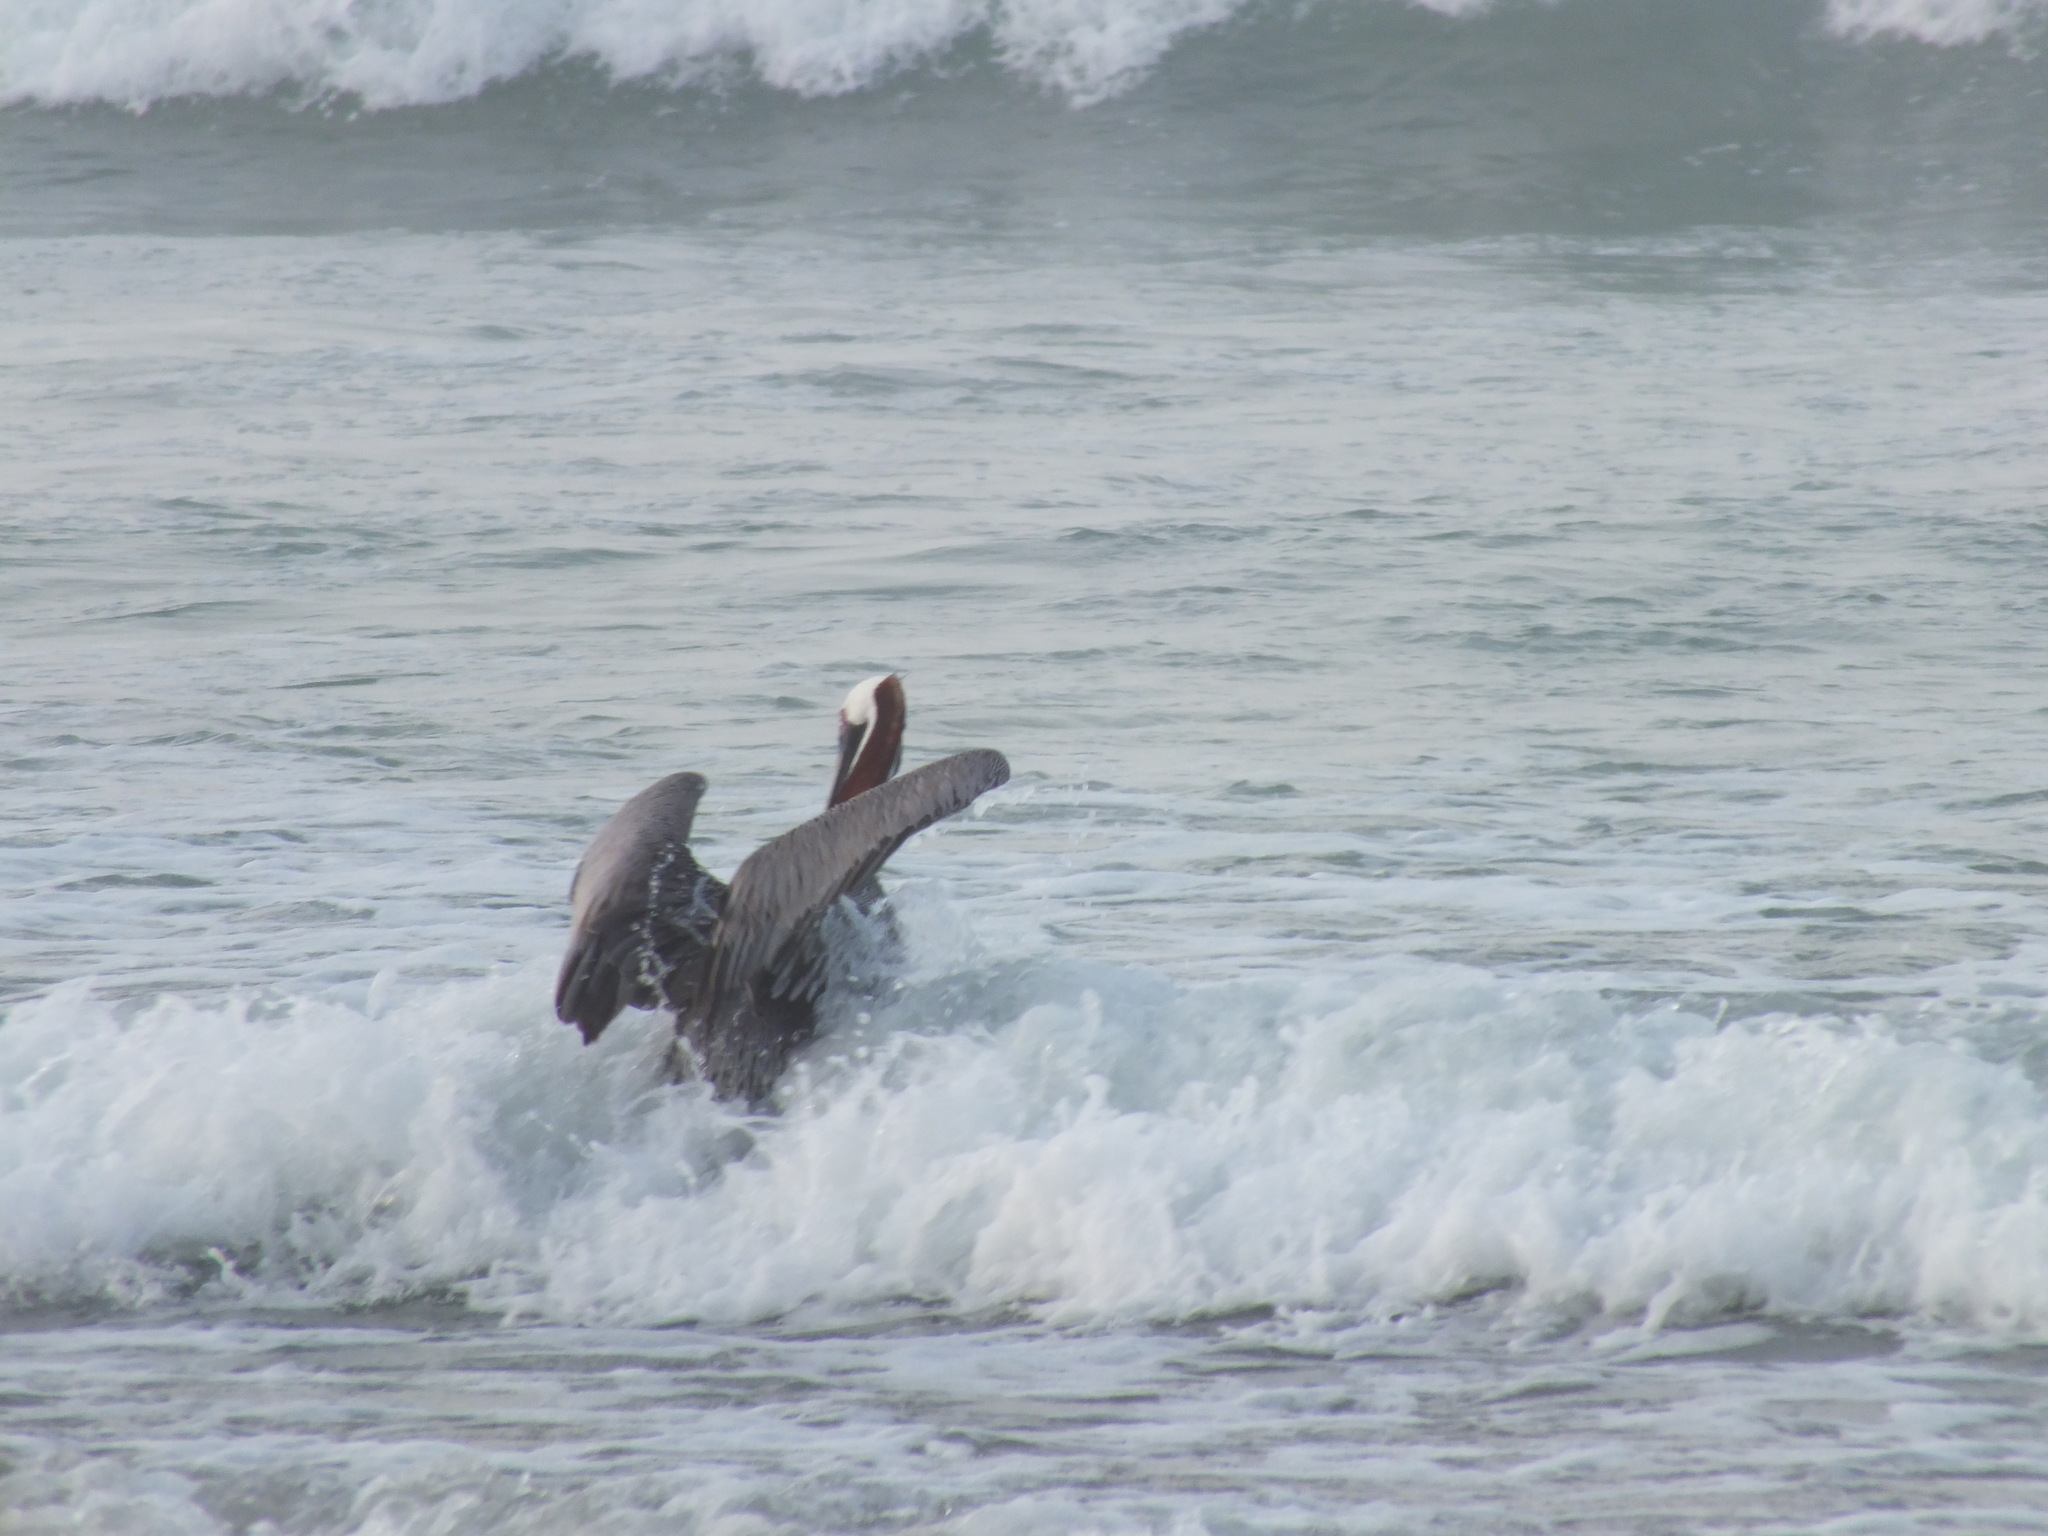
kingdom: Animalia
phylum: Chordata
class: Aves
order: Pelecaniformes
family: Pelecanidae
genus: Pelecanus
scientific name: Pelecanus occidentalis
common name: Brown pelican
